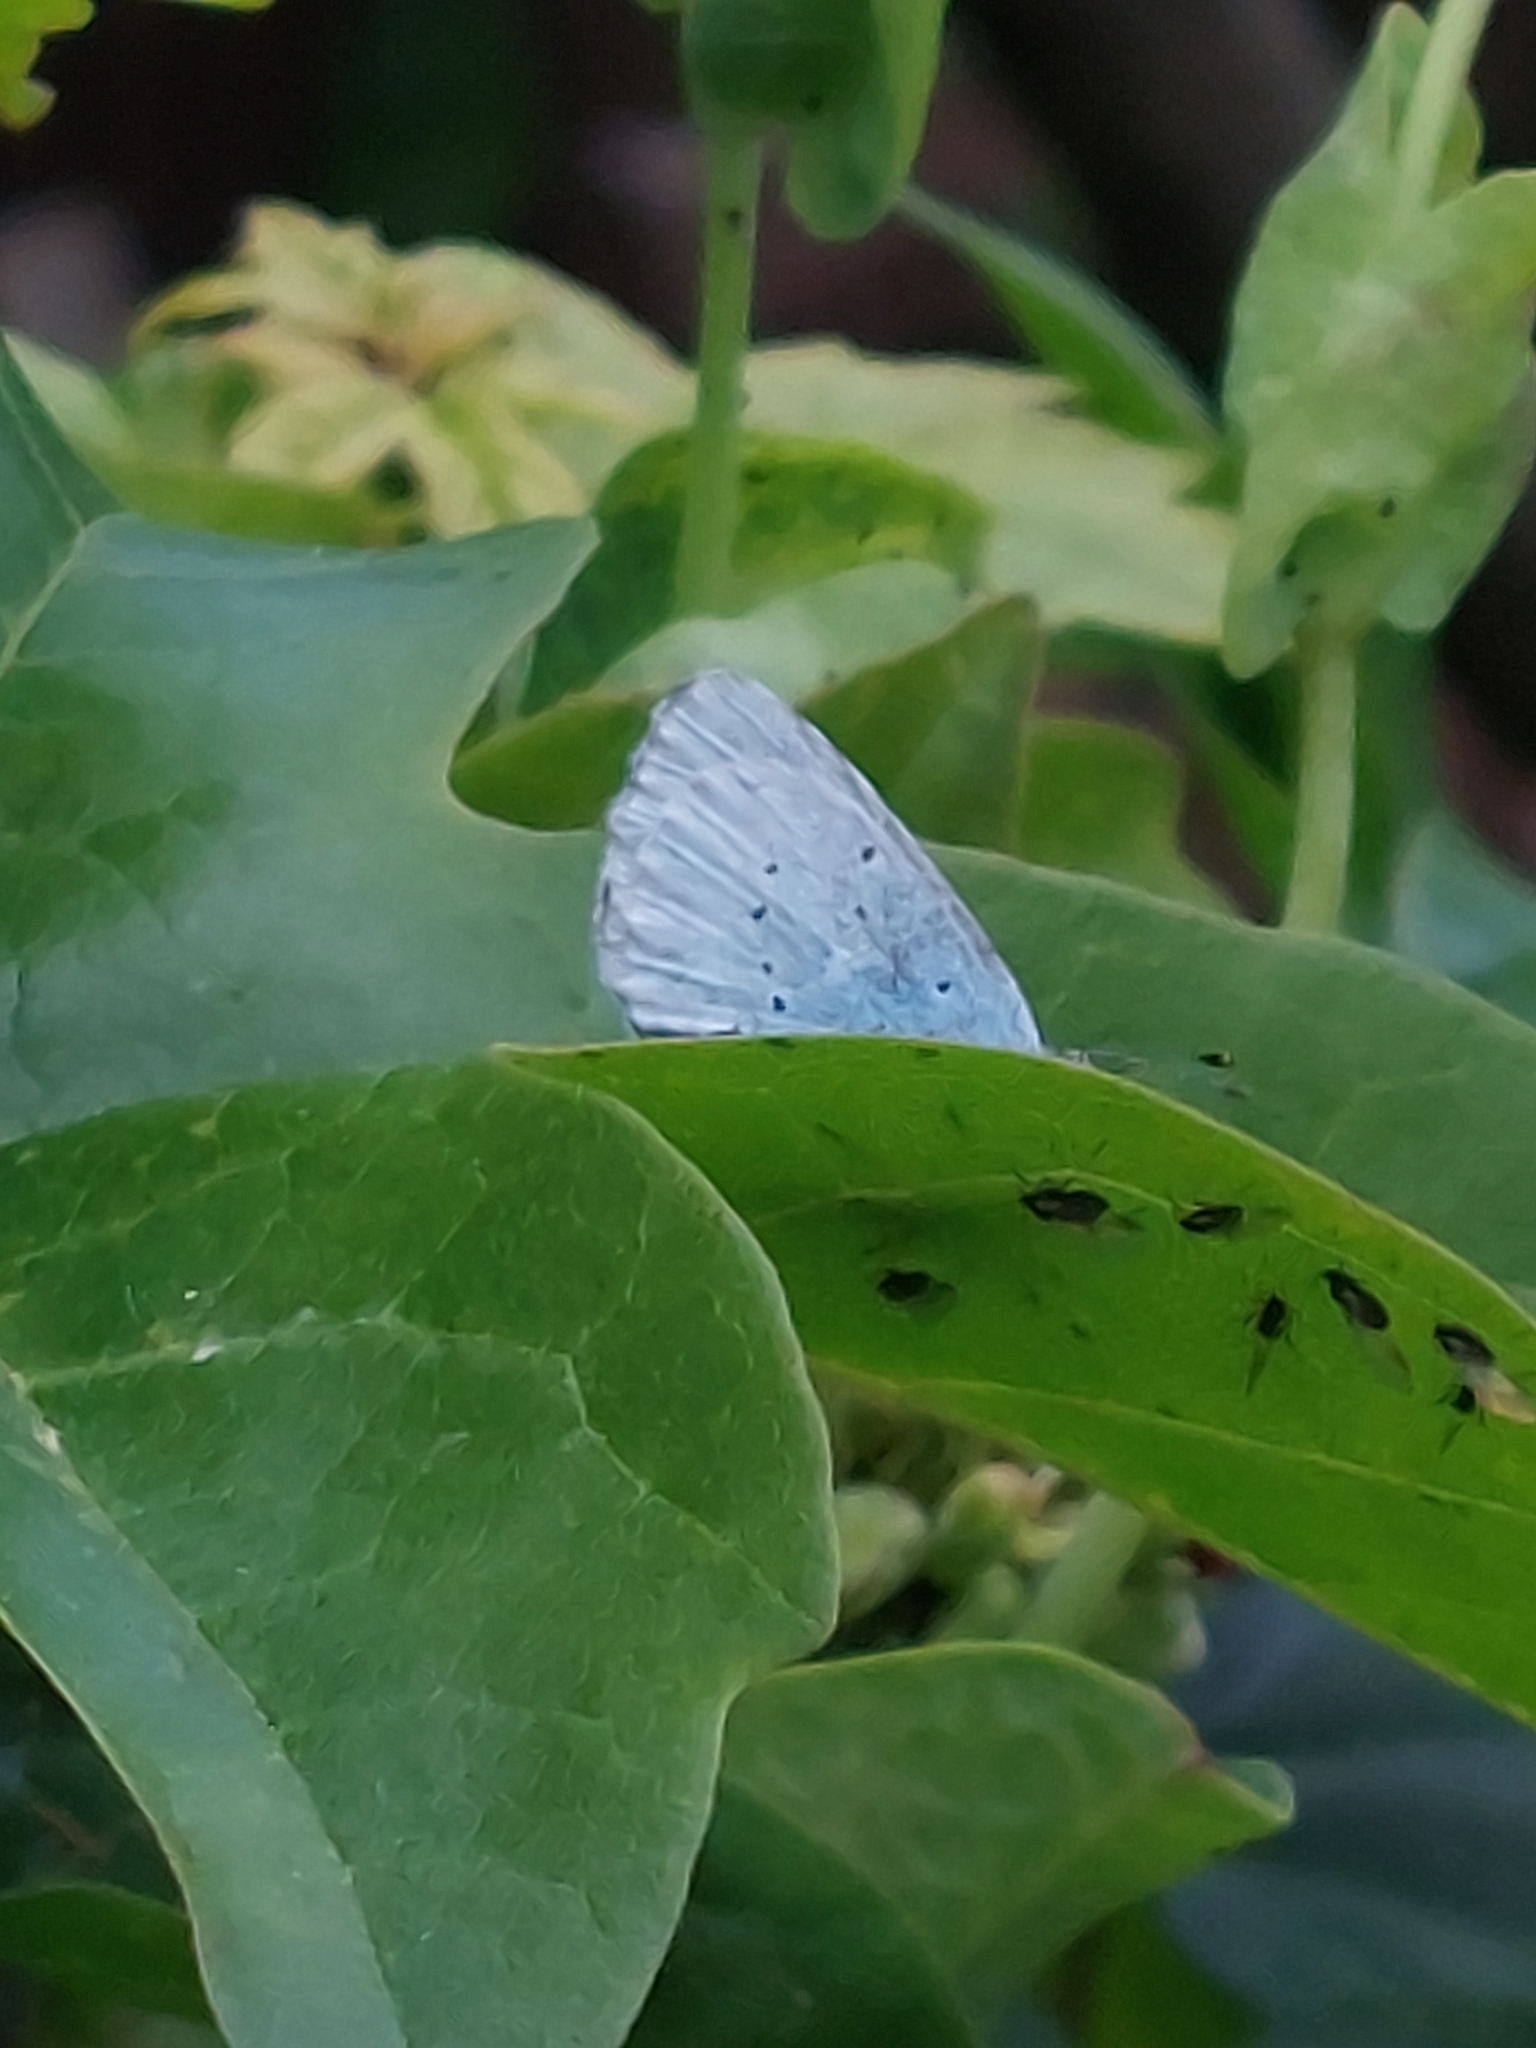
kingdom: Animalia
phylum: Arthropoda
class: Insecta
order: Lepidoptera
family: Lycaenidae
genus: Celastrina
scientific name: Celastrina argiolus
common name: Holly blue
